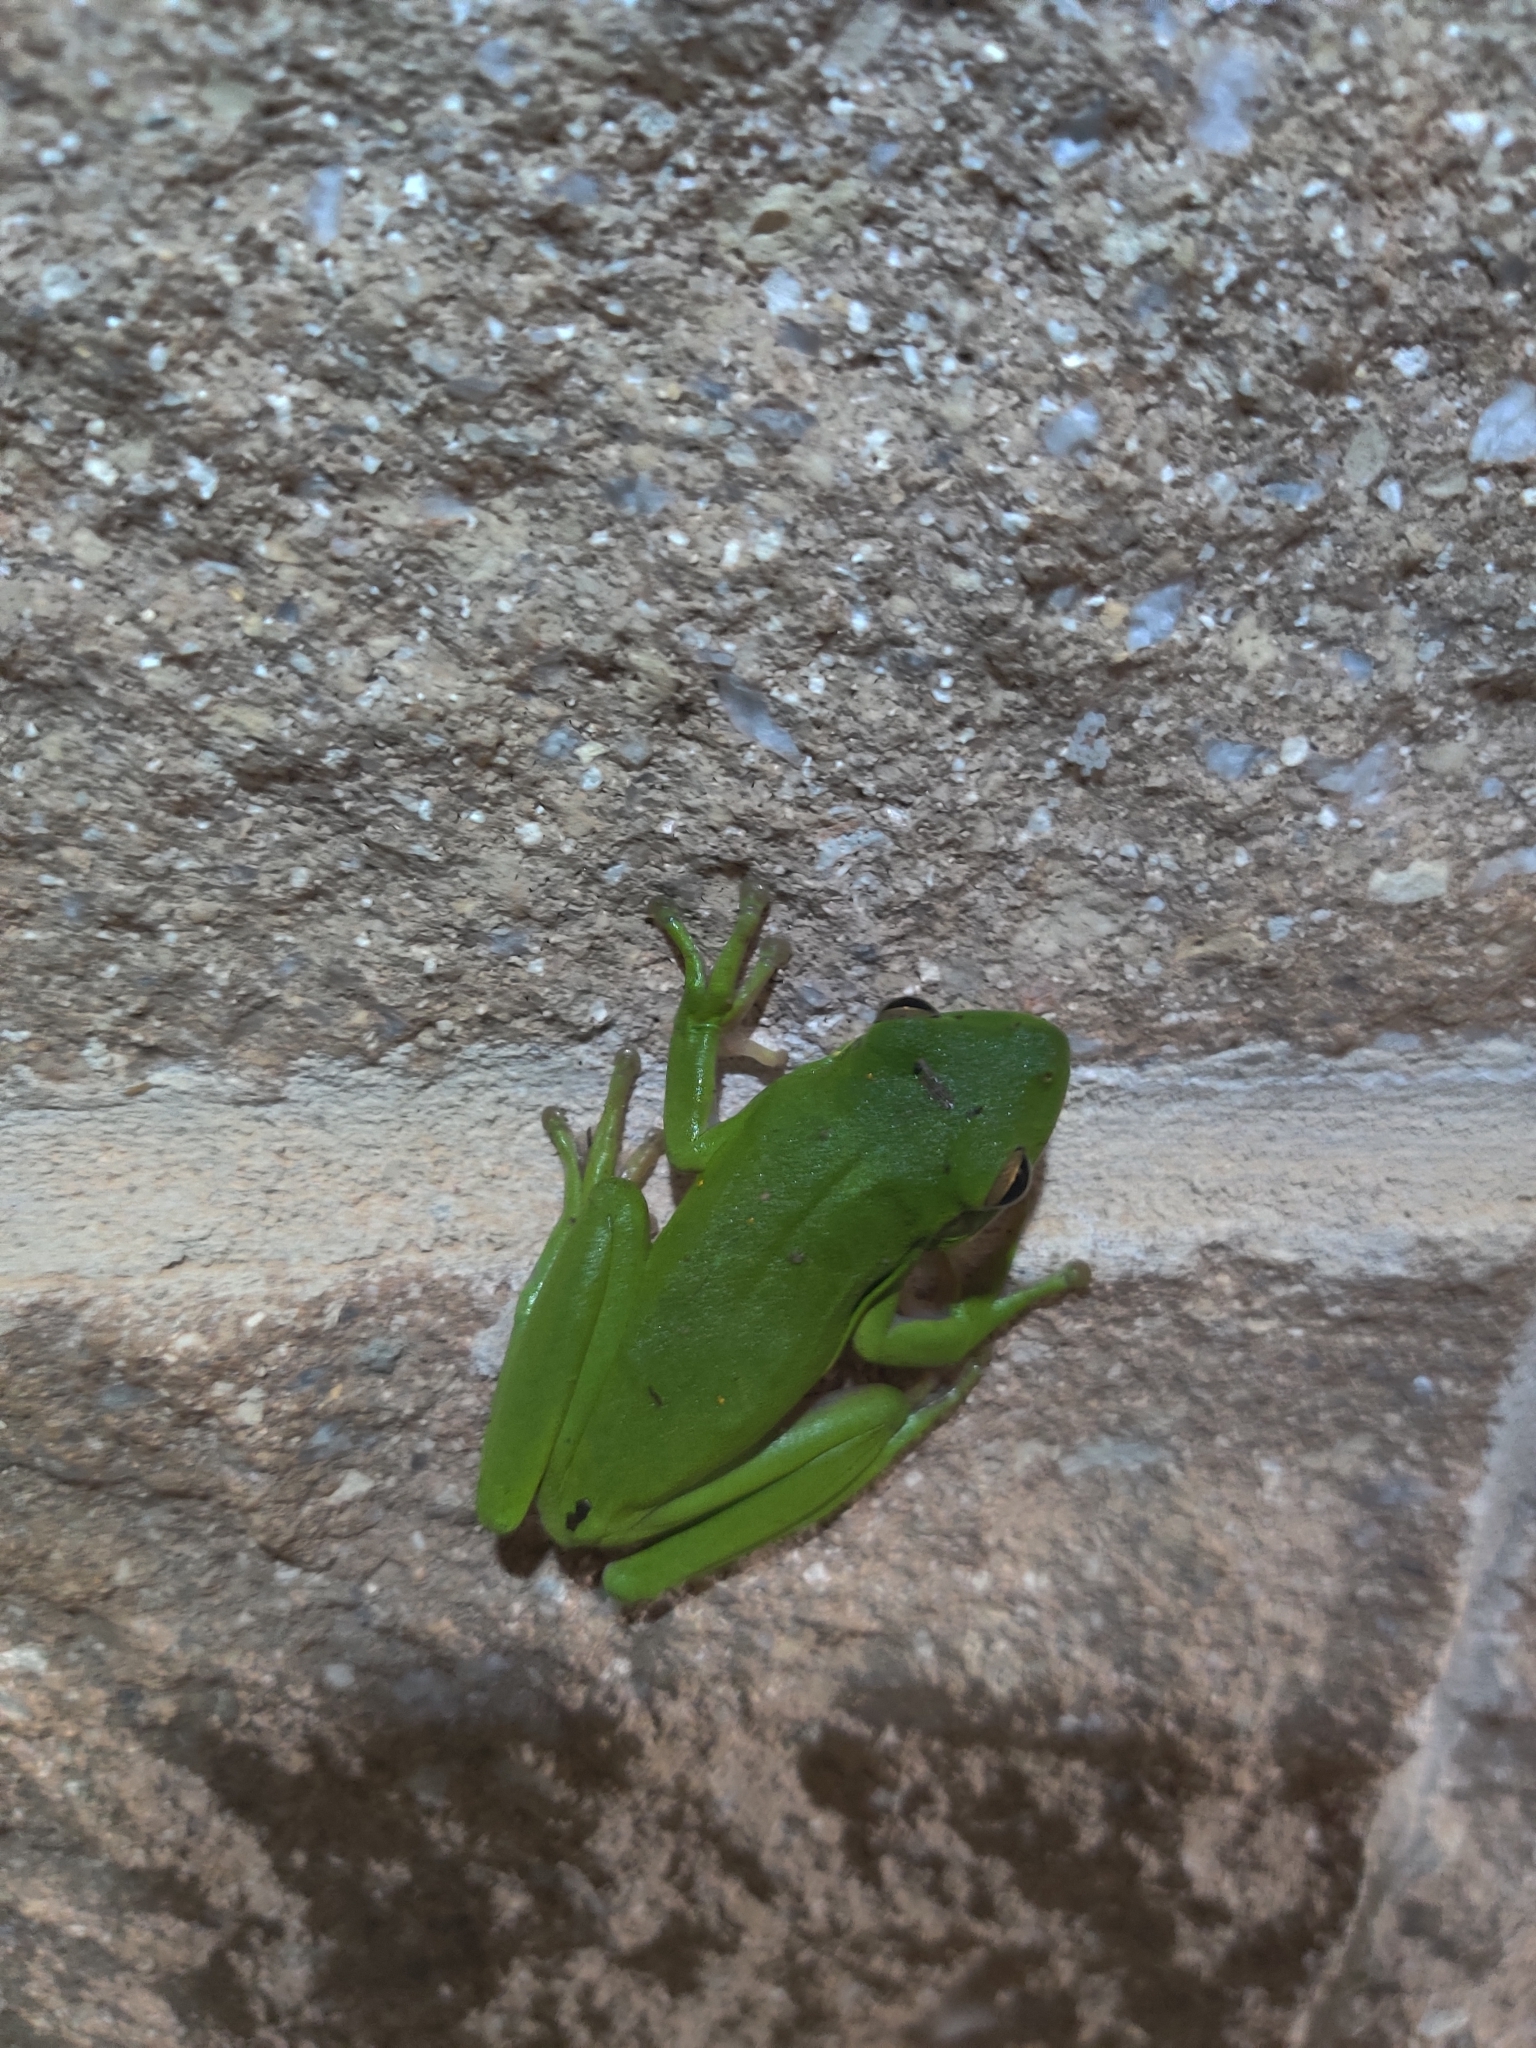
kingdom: Animalia
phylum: Chordata
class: Amphibia
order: Anura
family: Hylidae
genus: Dryophytes
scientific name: Dryophytes cinereus
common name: Green treefrog
